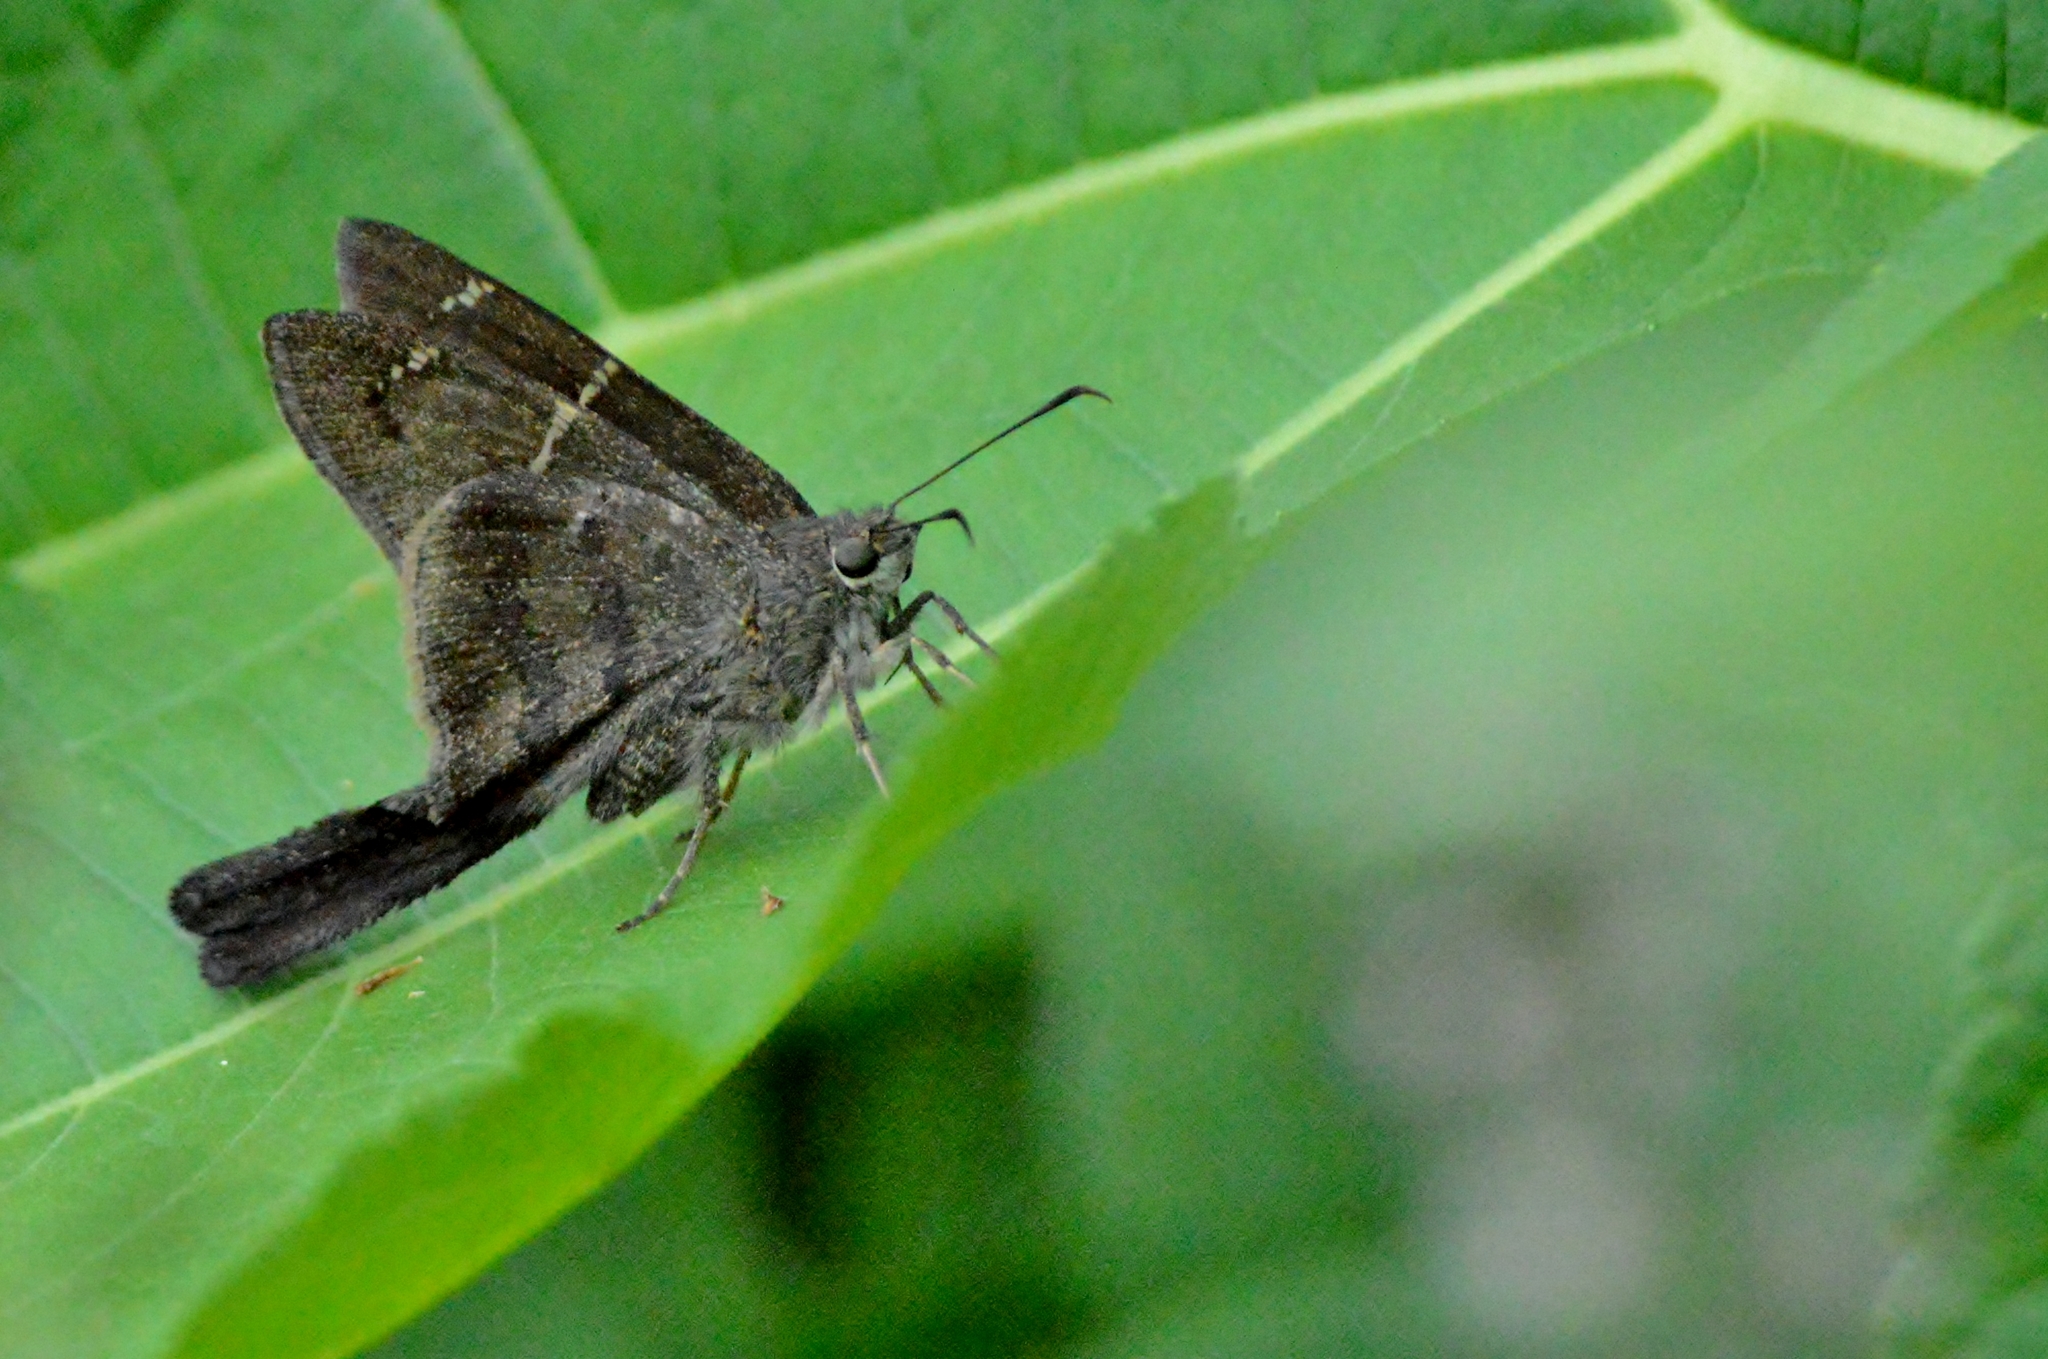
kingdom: Animalia
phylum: Arthropoda
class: Insecta
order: Lepidoptera
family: Hesperiidae
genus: Urbanus
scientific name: Urbanus procne
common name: Brown longtail
